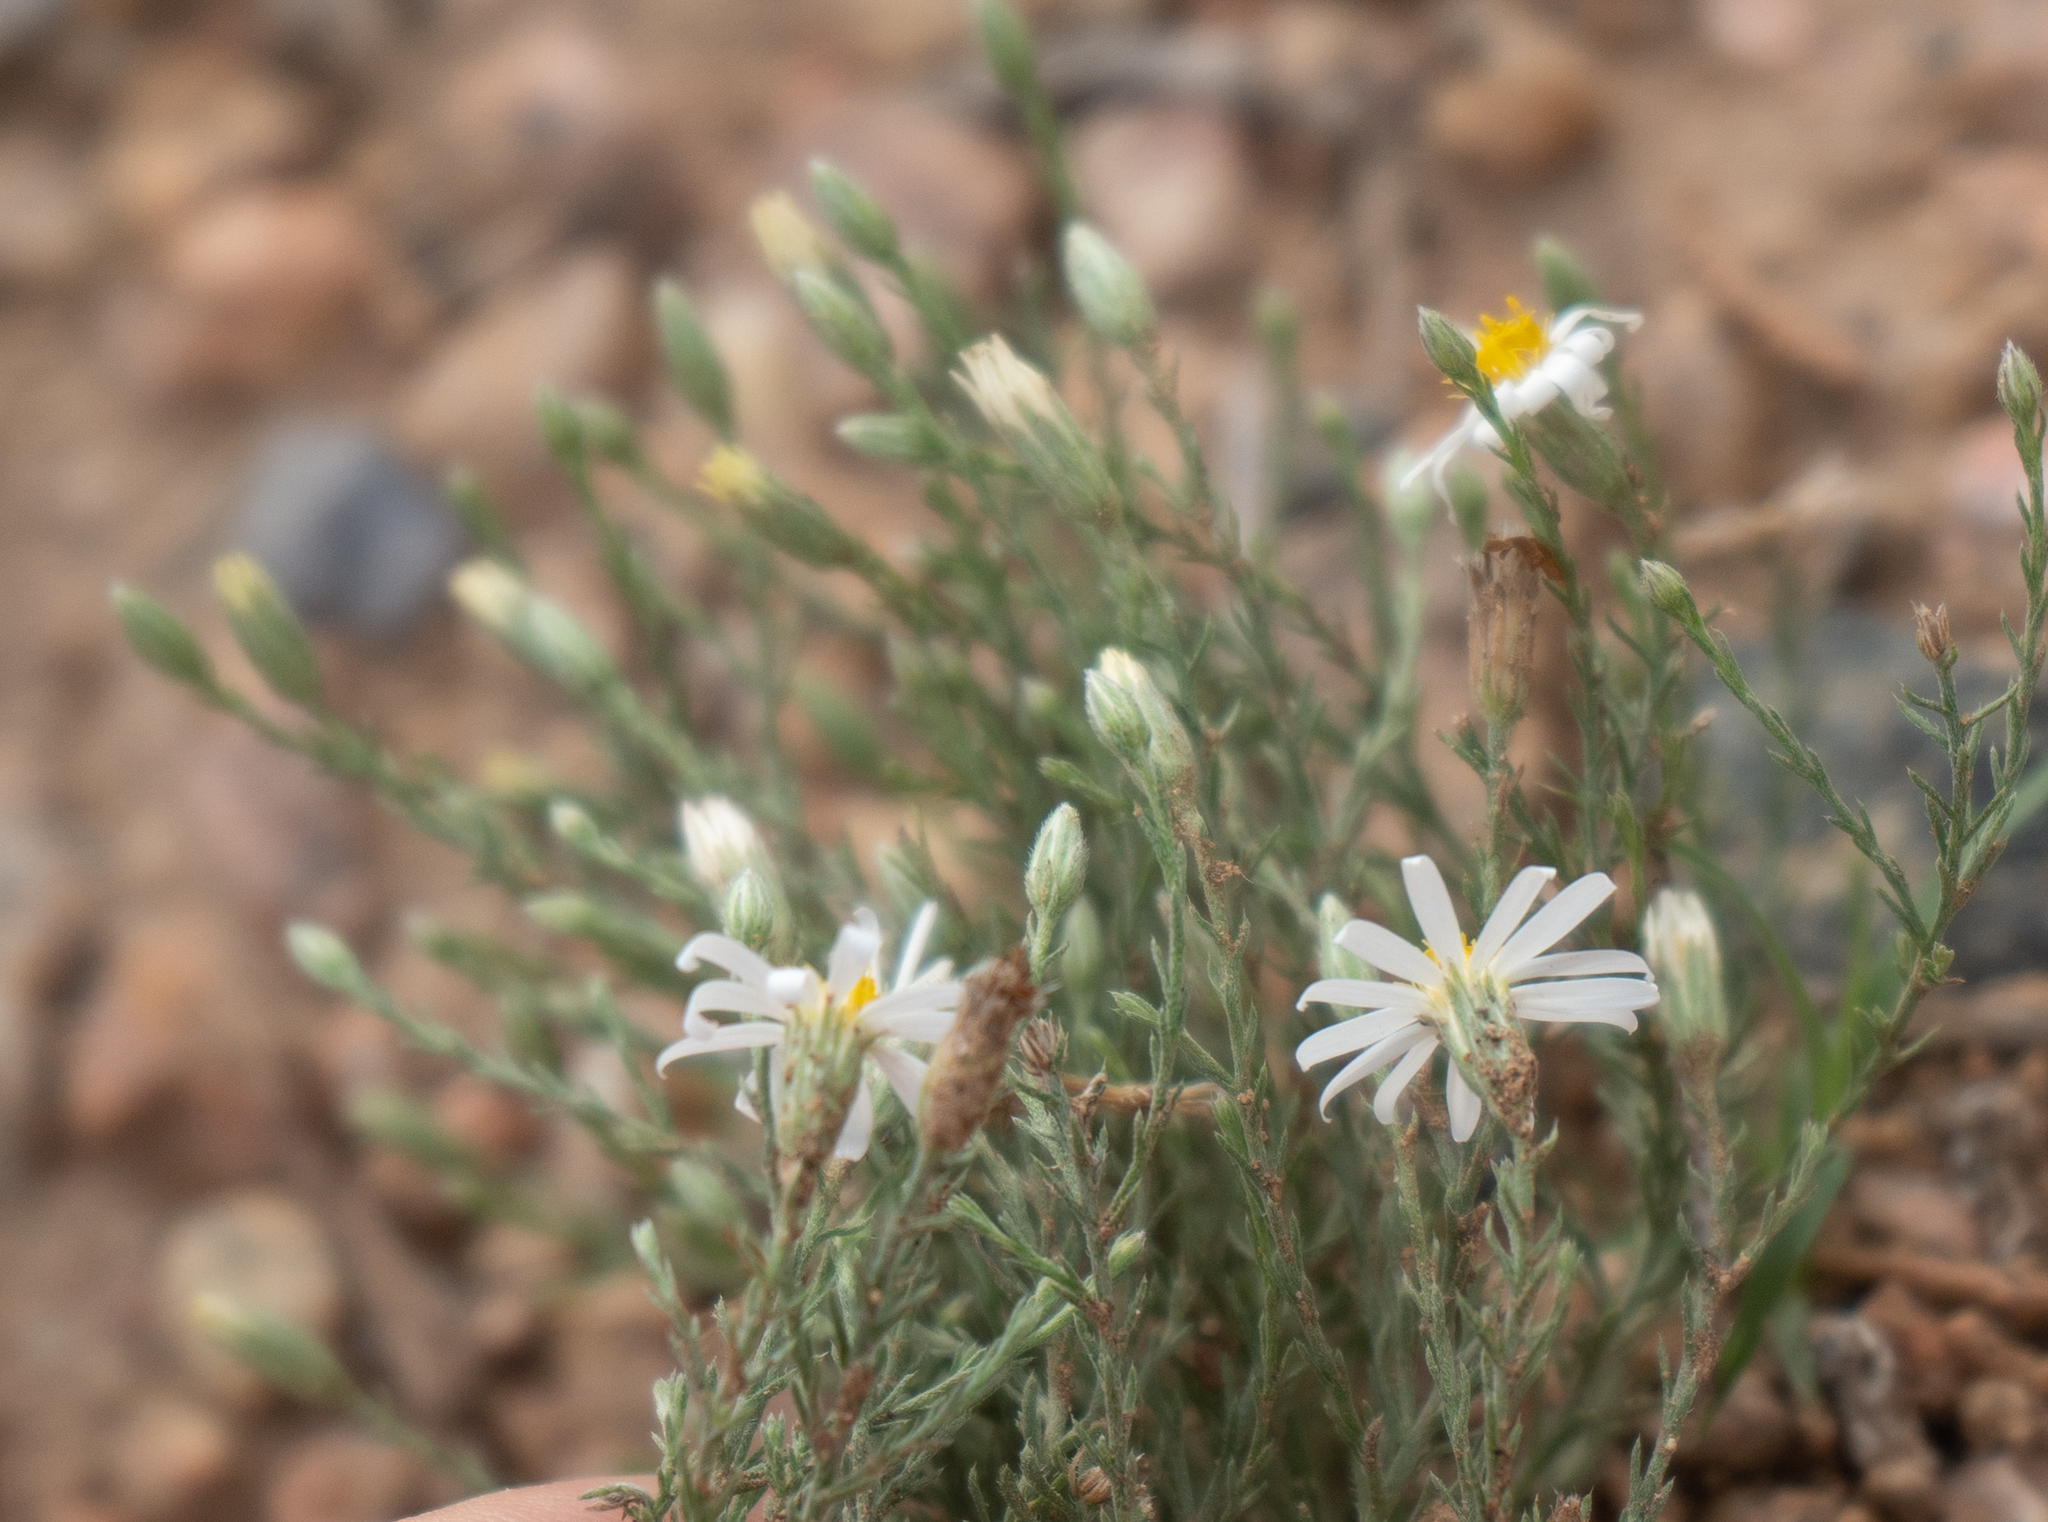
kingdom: Plantae
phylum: Tracheophyta
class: Magnoliopsida
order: Asterales
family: Asteraceae
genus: Chaetopappa
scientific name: Chaetopappa ericoides
